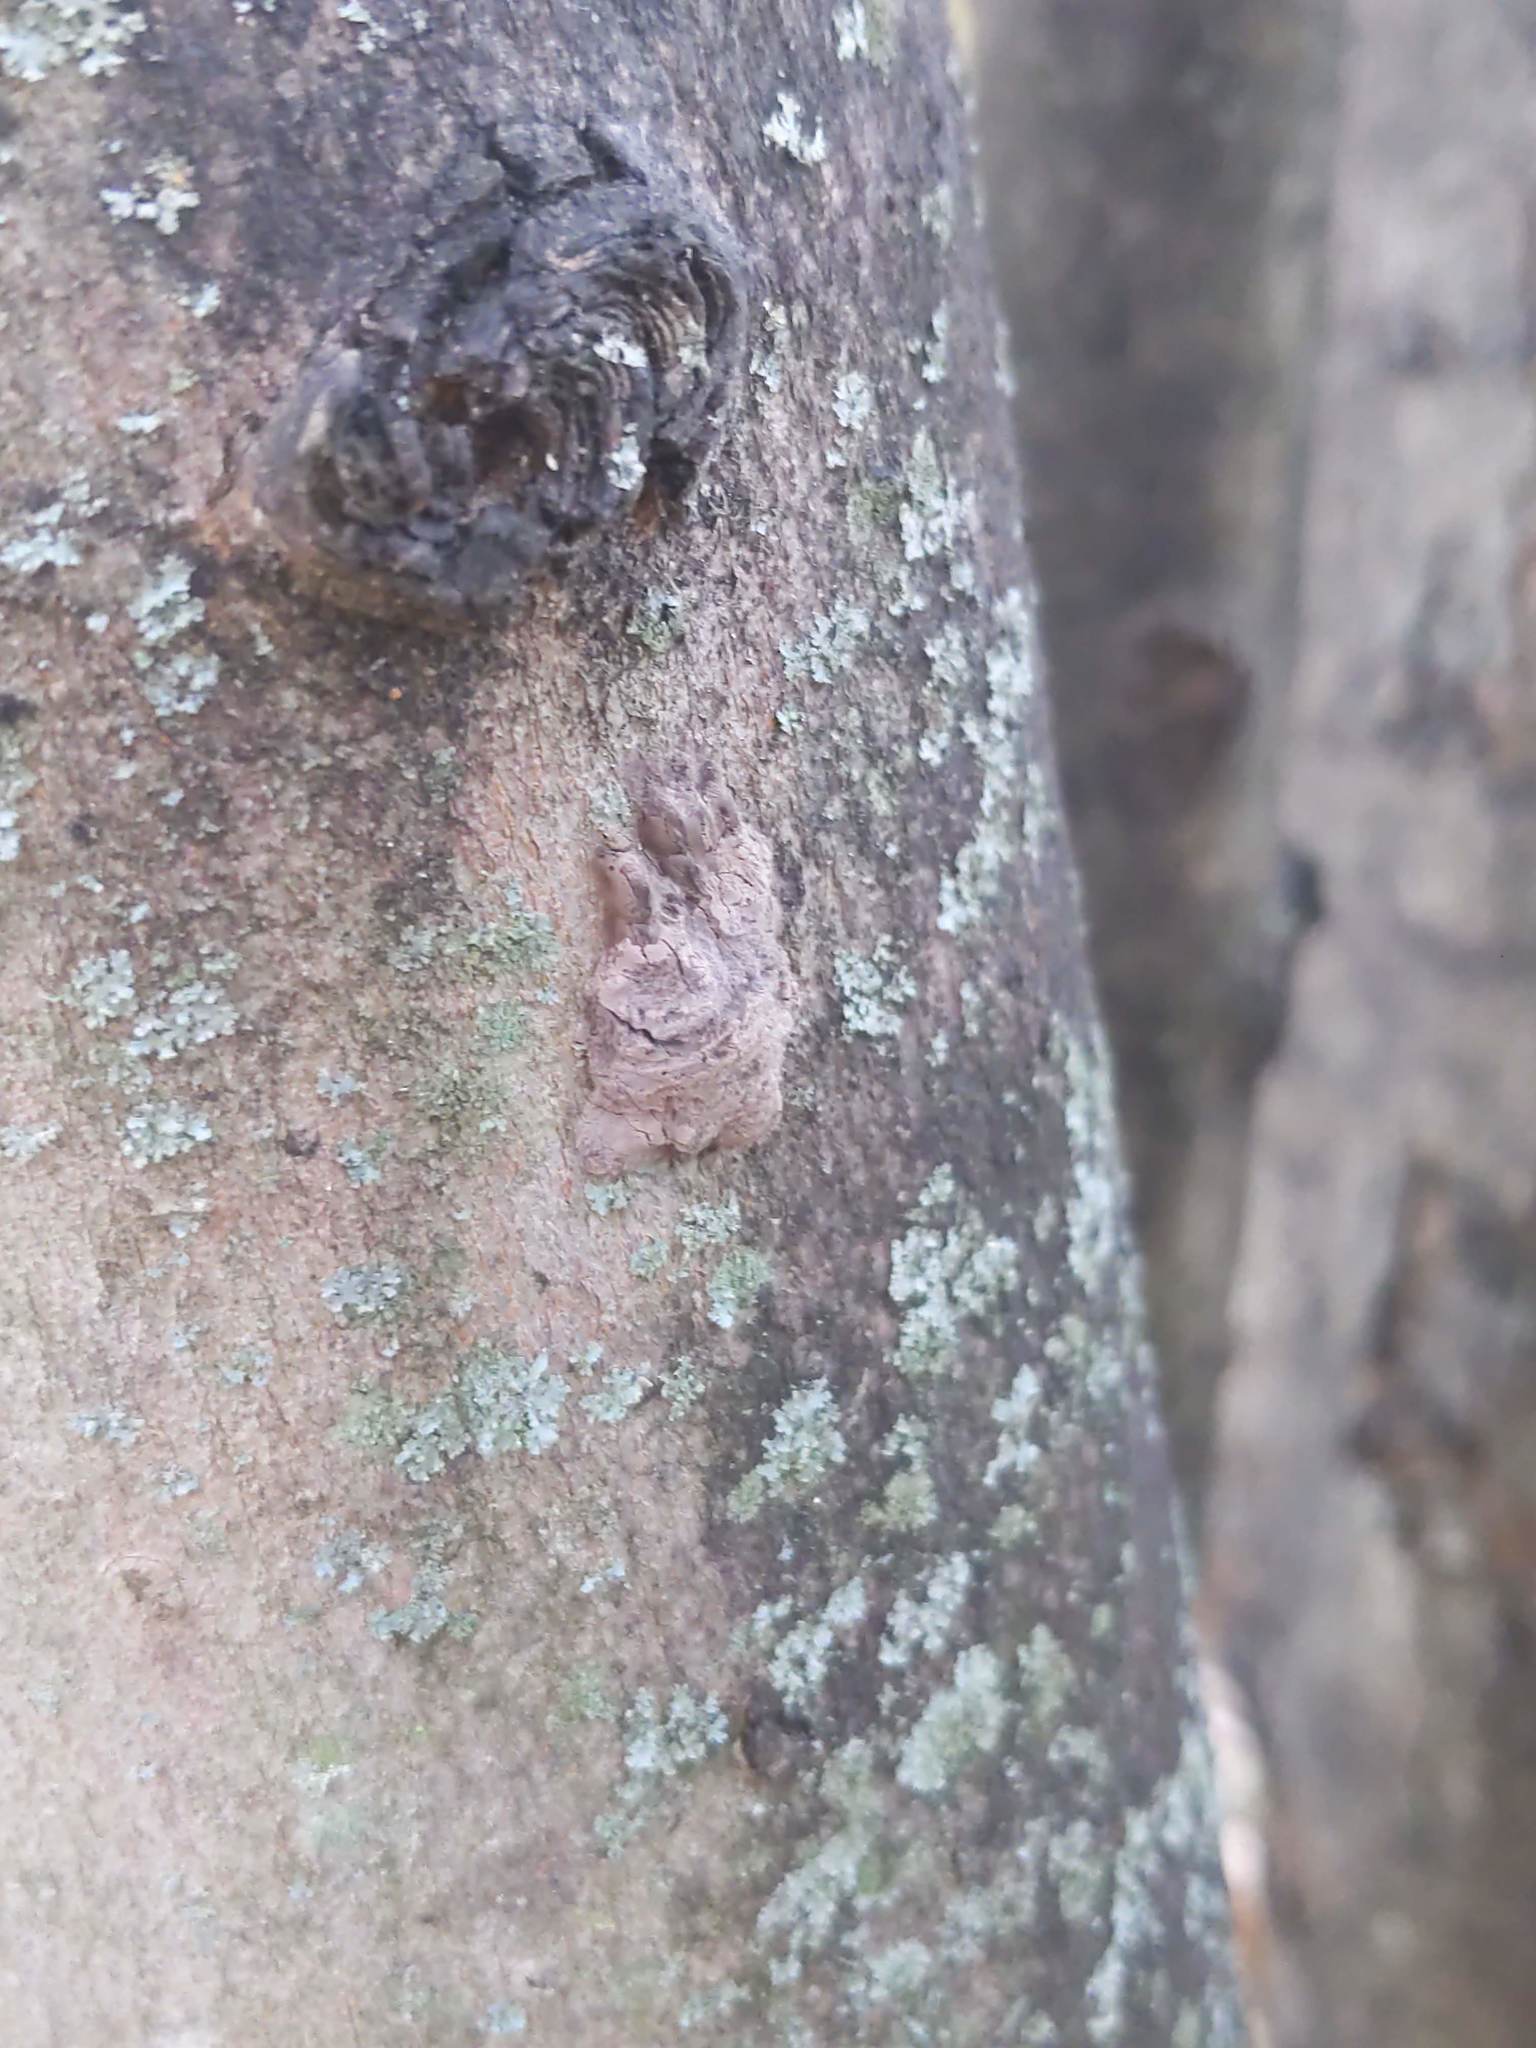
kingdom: Animalia
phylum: Arthropoda
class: Insecta
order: Hemiptera
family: Fulgoridae
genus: Lycorma
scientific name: Lycorma delicatula
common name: Spotted lanternfly
